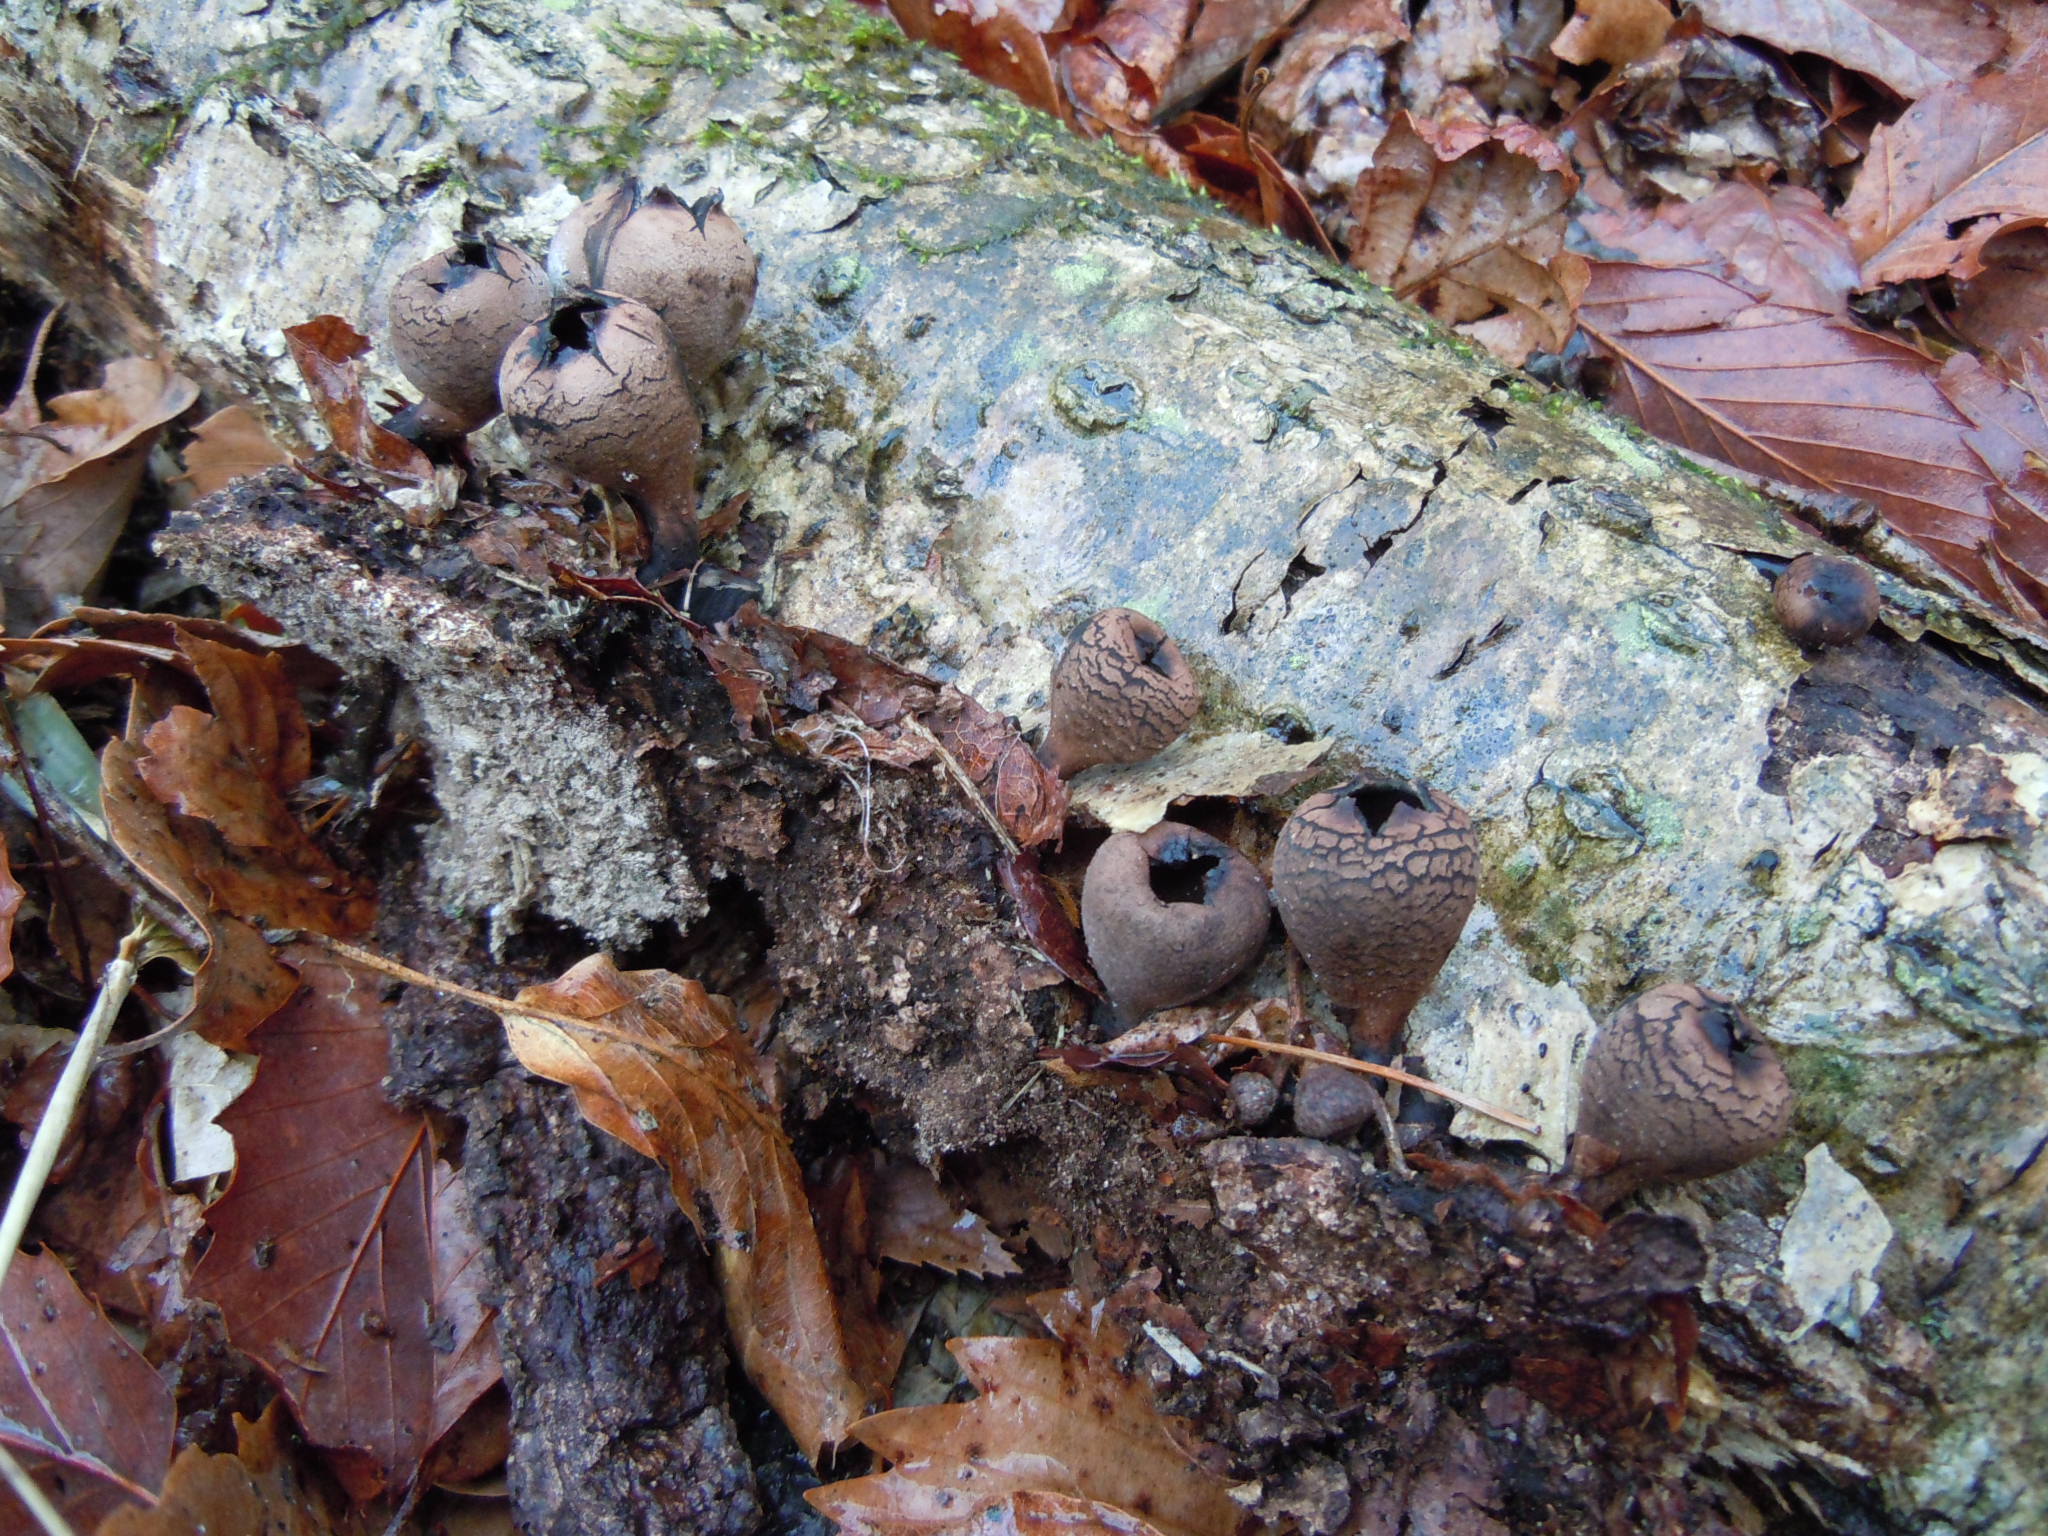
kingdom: Fungi
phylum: Ascomycota
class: Pezizomycetes
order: Pezizales
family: Sarcosomataceae
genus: Urnula
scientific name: Urnula craterium
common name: Devil's urn
